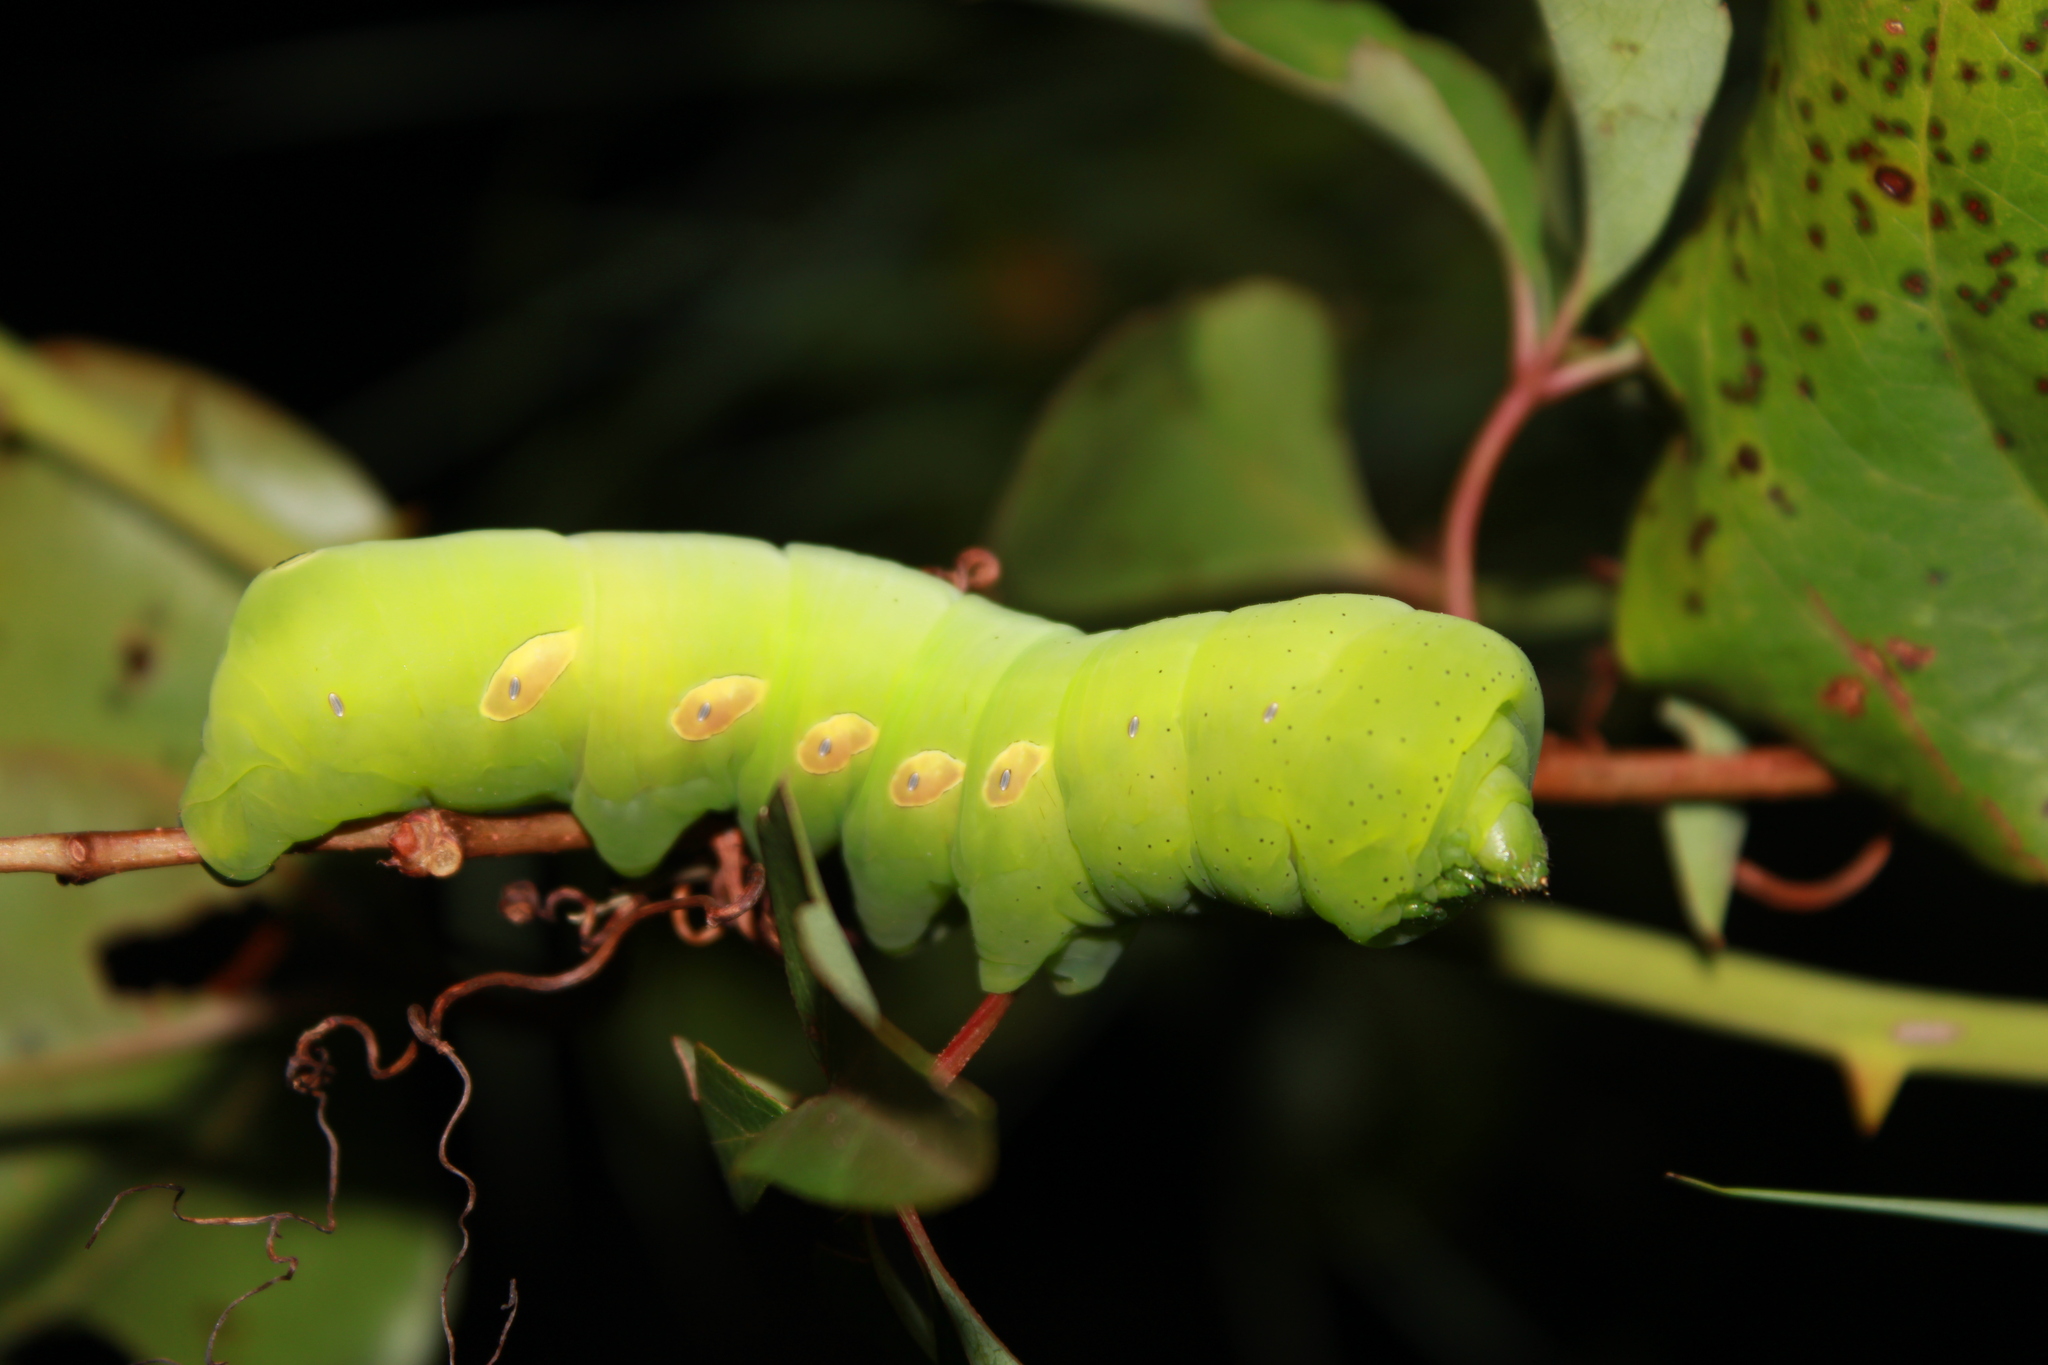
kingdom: Animalia
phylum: Arthropoda
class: Insecta
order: Lepidoptera
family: Sphingidae
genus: Eumorpha
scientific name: Eumorpha pandorus
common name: Pandora sphinx
